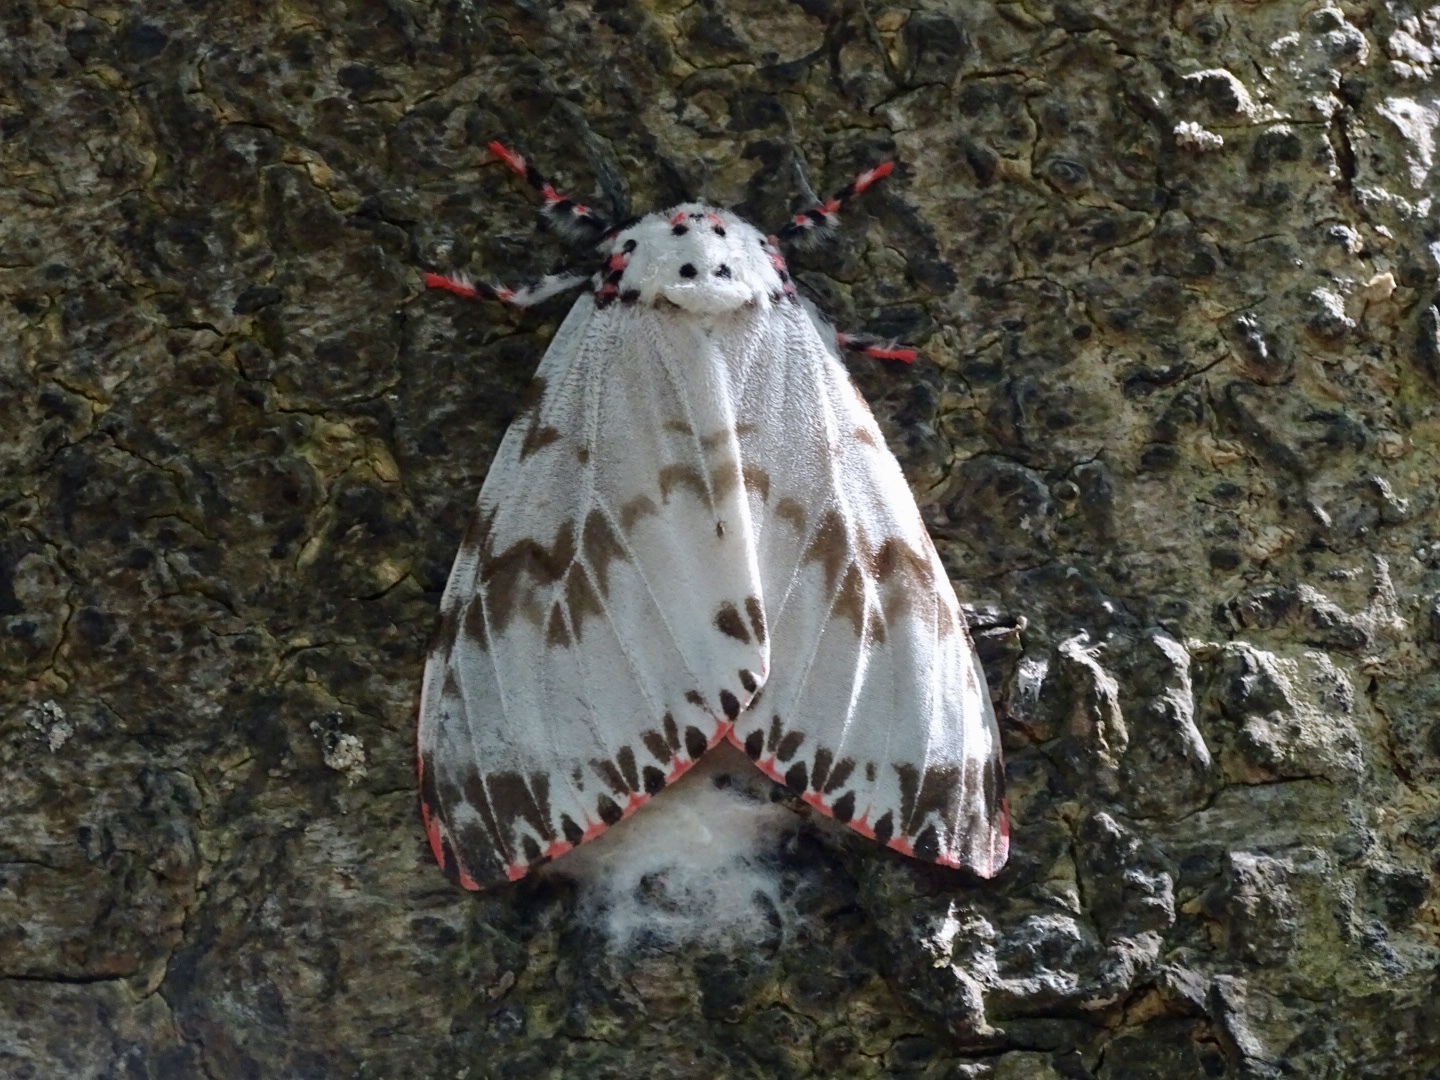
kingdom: Animalia
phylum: Arthropoda
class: Insecta
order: Lepidoptera
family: Erebidae
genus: Lymantria
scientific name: Lymantria mathura
